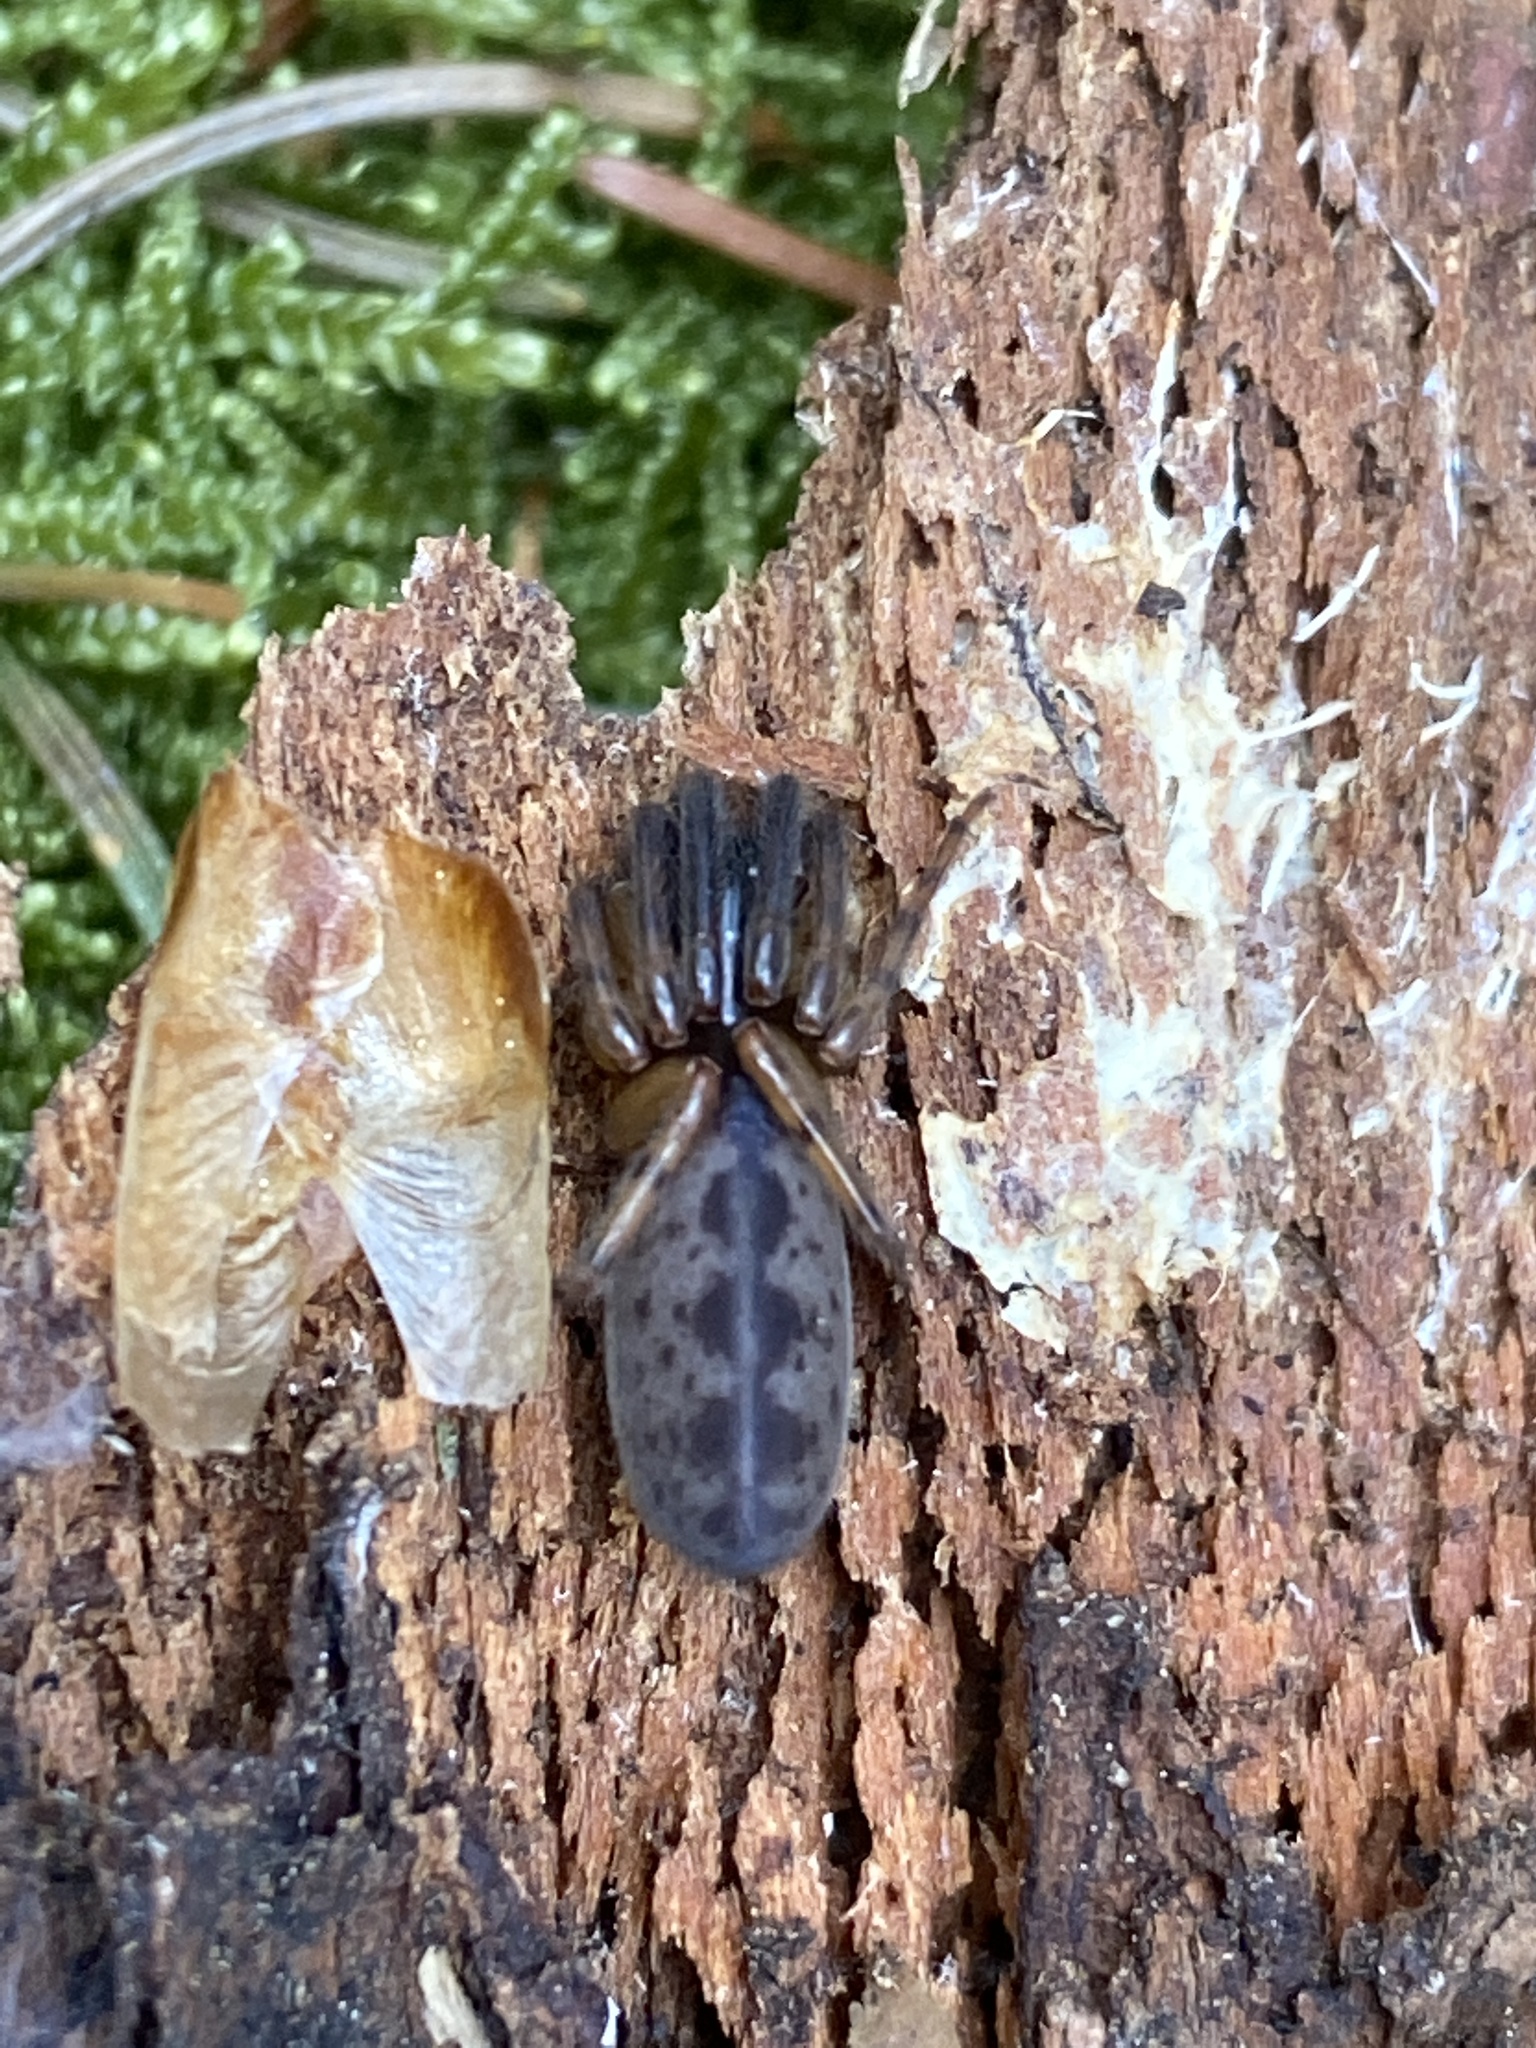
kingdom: Animalia
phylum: Arthropoda
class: Arachnida
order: Araneae
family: Segestriidae
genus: Segestria
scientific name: Segestria senoculata
